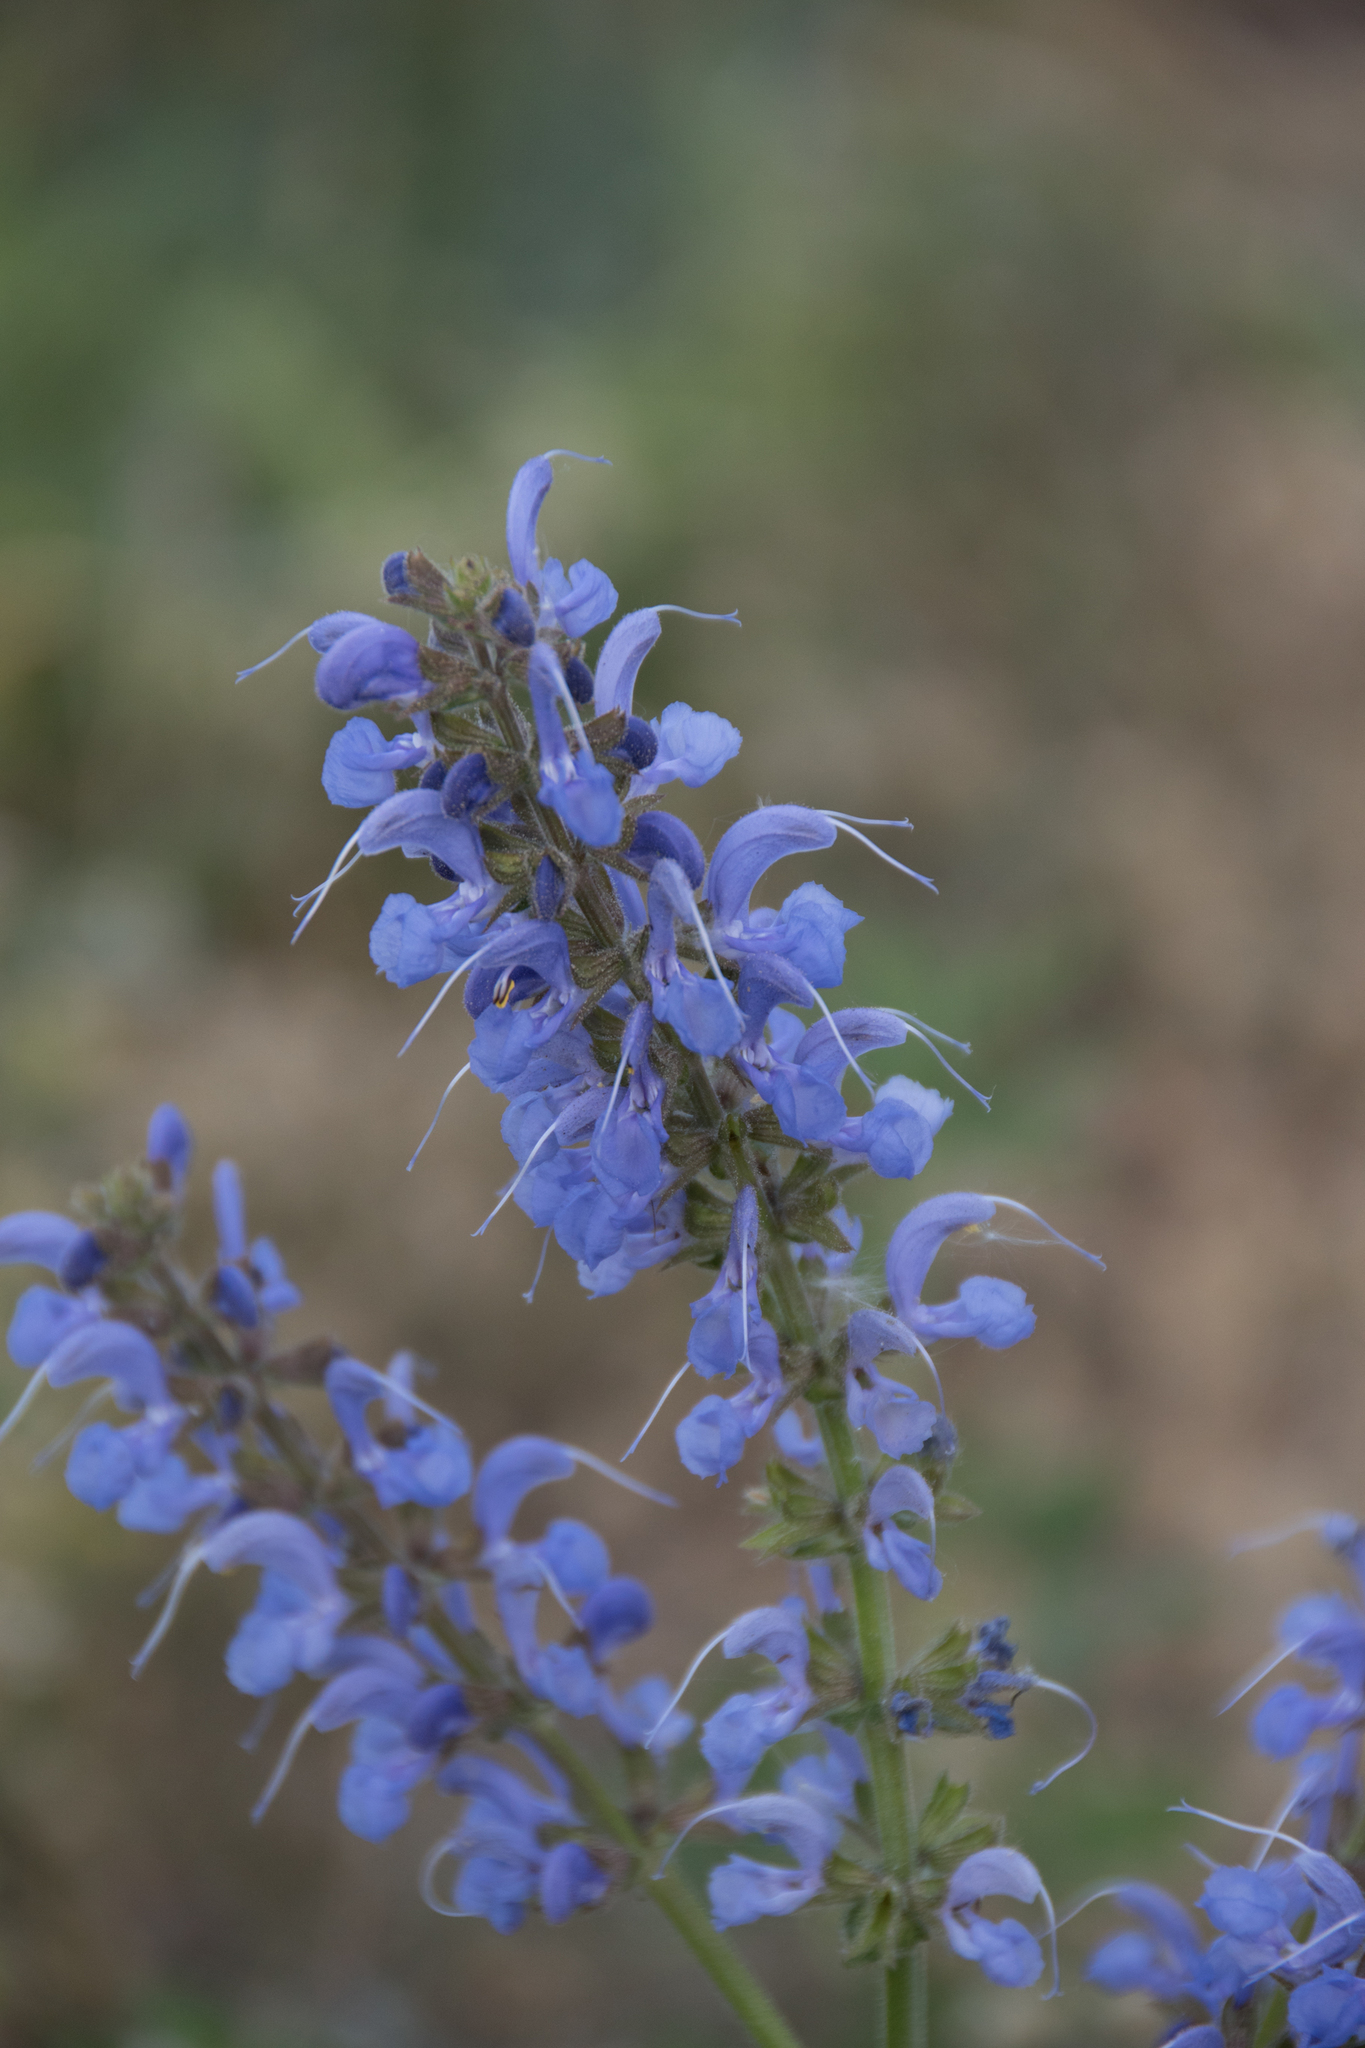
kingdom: Plantae
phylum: Tracheophyta
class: Magnoliopsida
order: Lamiales
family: Lamiaceae
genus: Salvia
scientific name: Salvia pratensis
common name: Meadow sage
